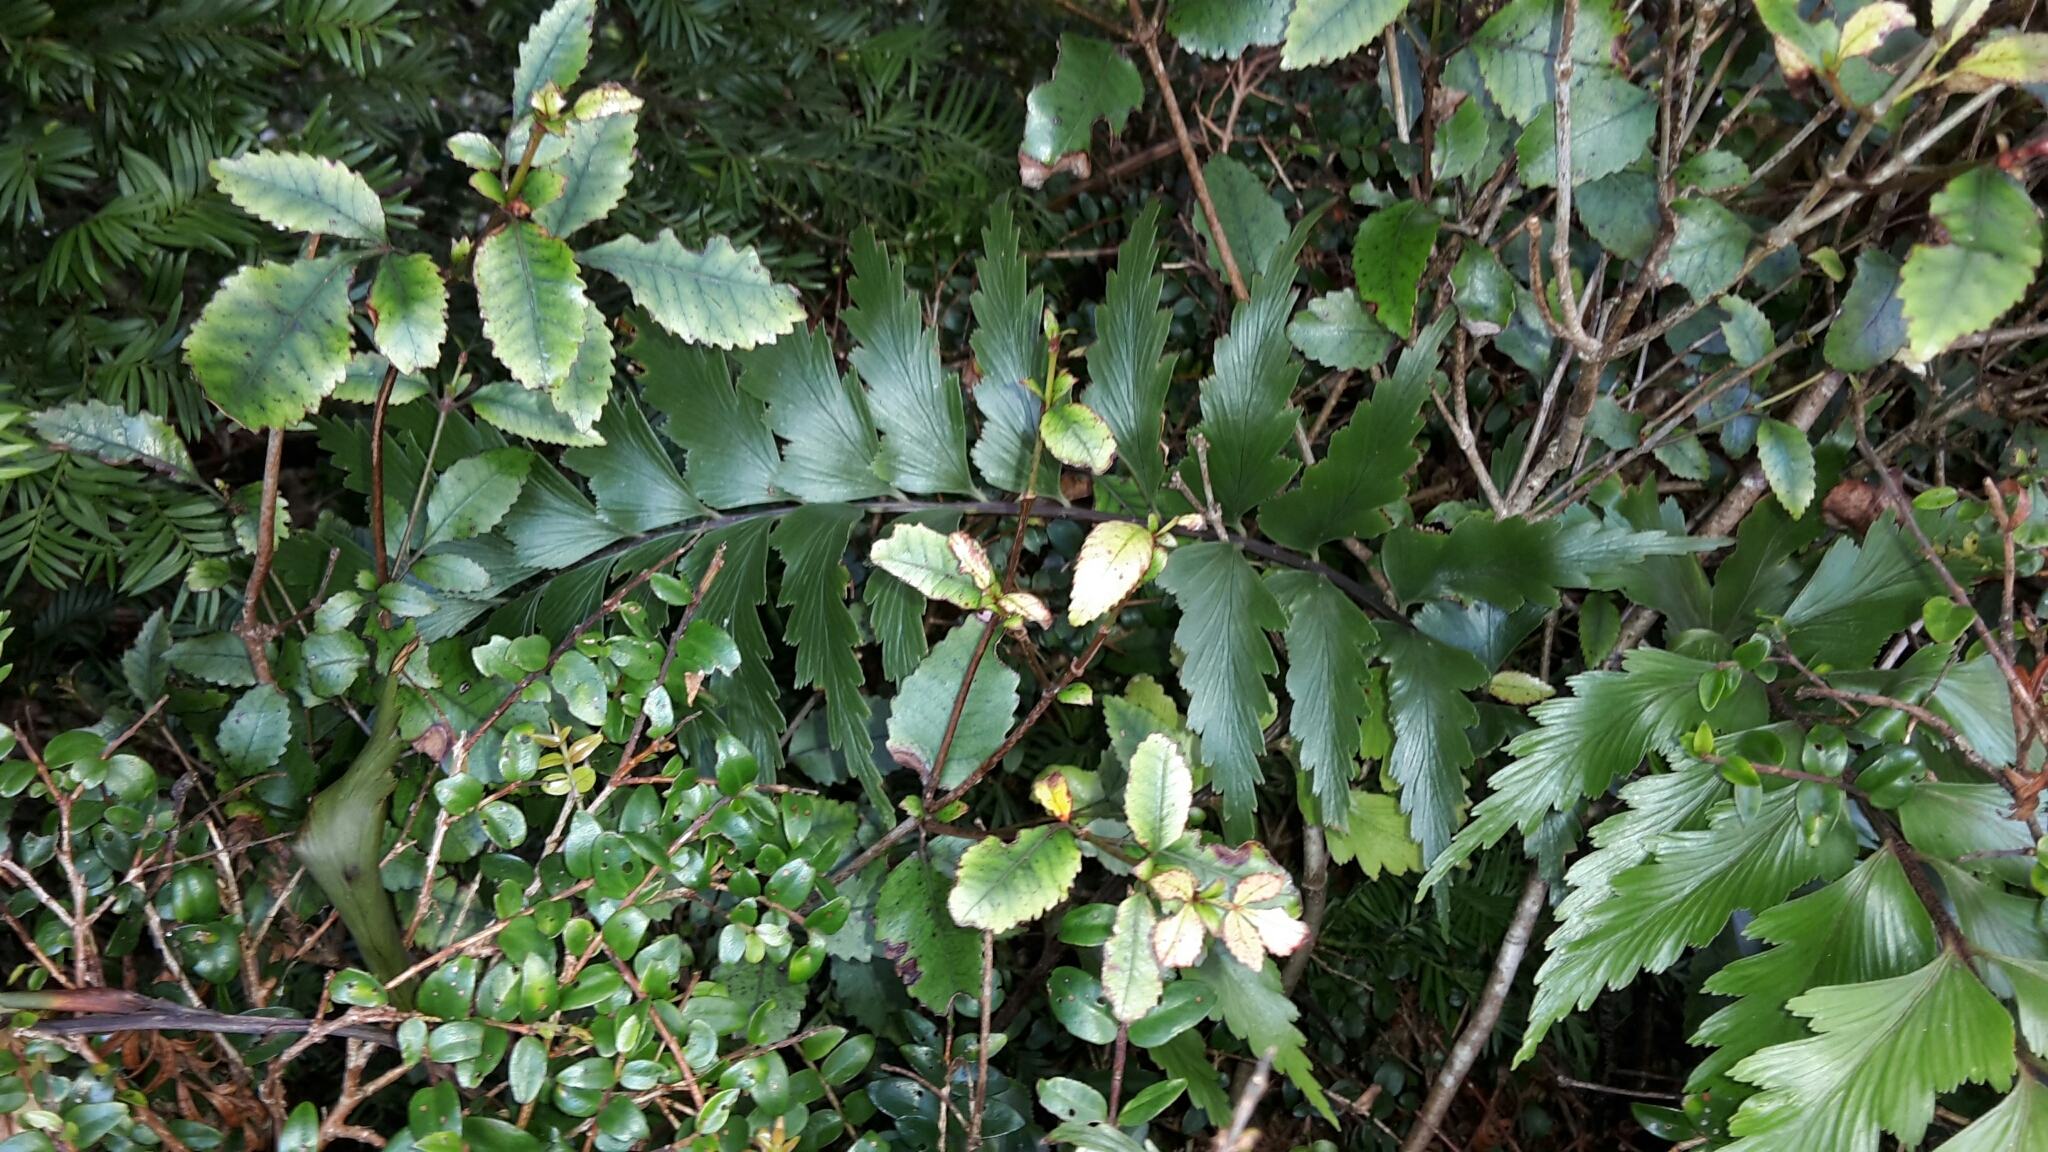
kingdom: Plantae
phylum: Tracheophyta
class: Polypodiopsida
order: Polypodiales
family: Aspleniaceae
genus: Asplenium
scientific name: Asplenium polyodon
